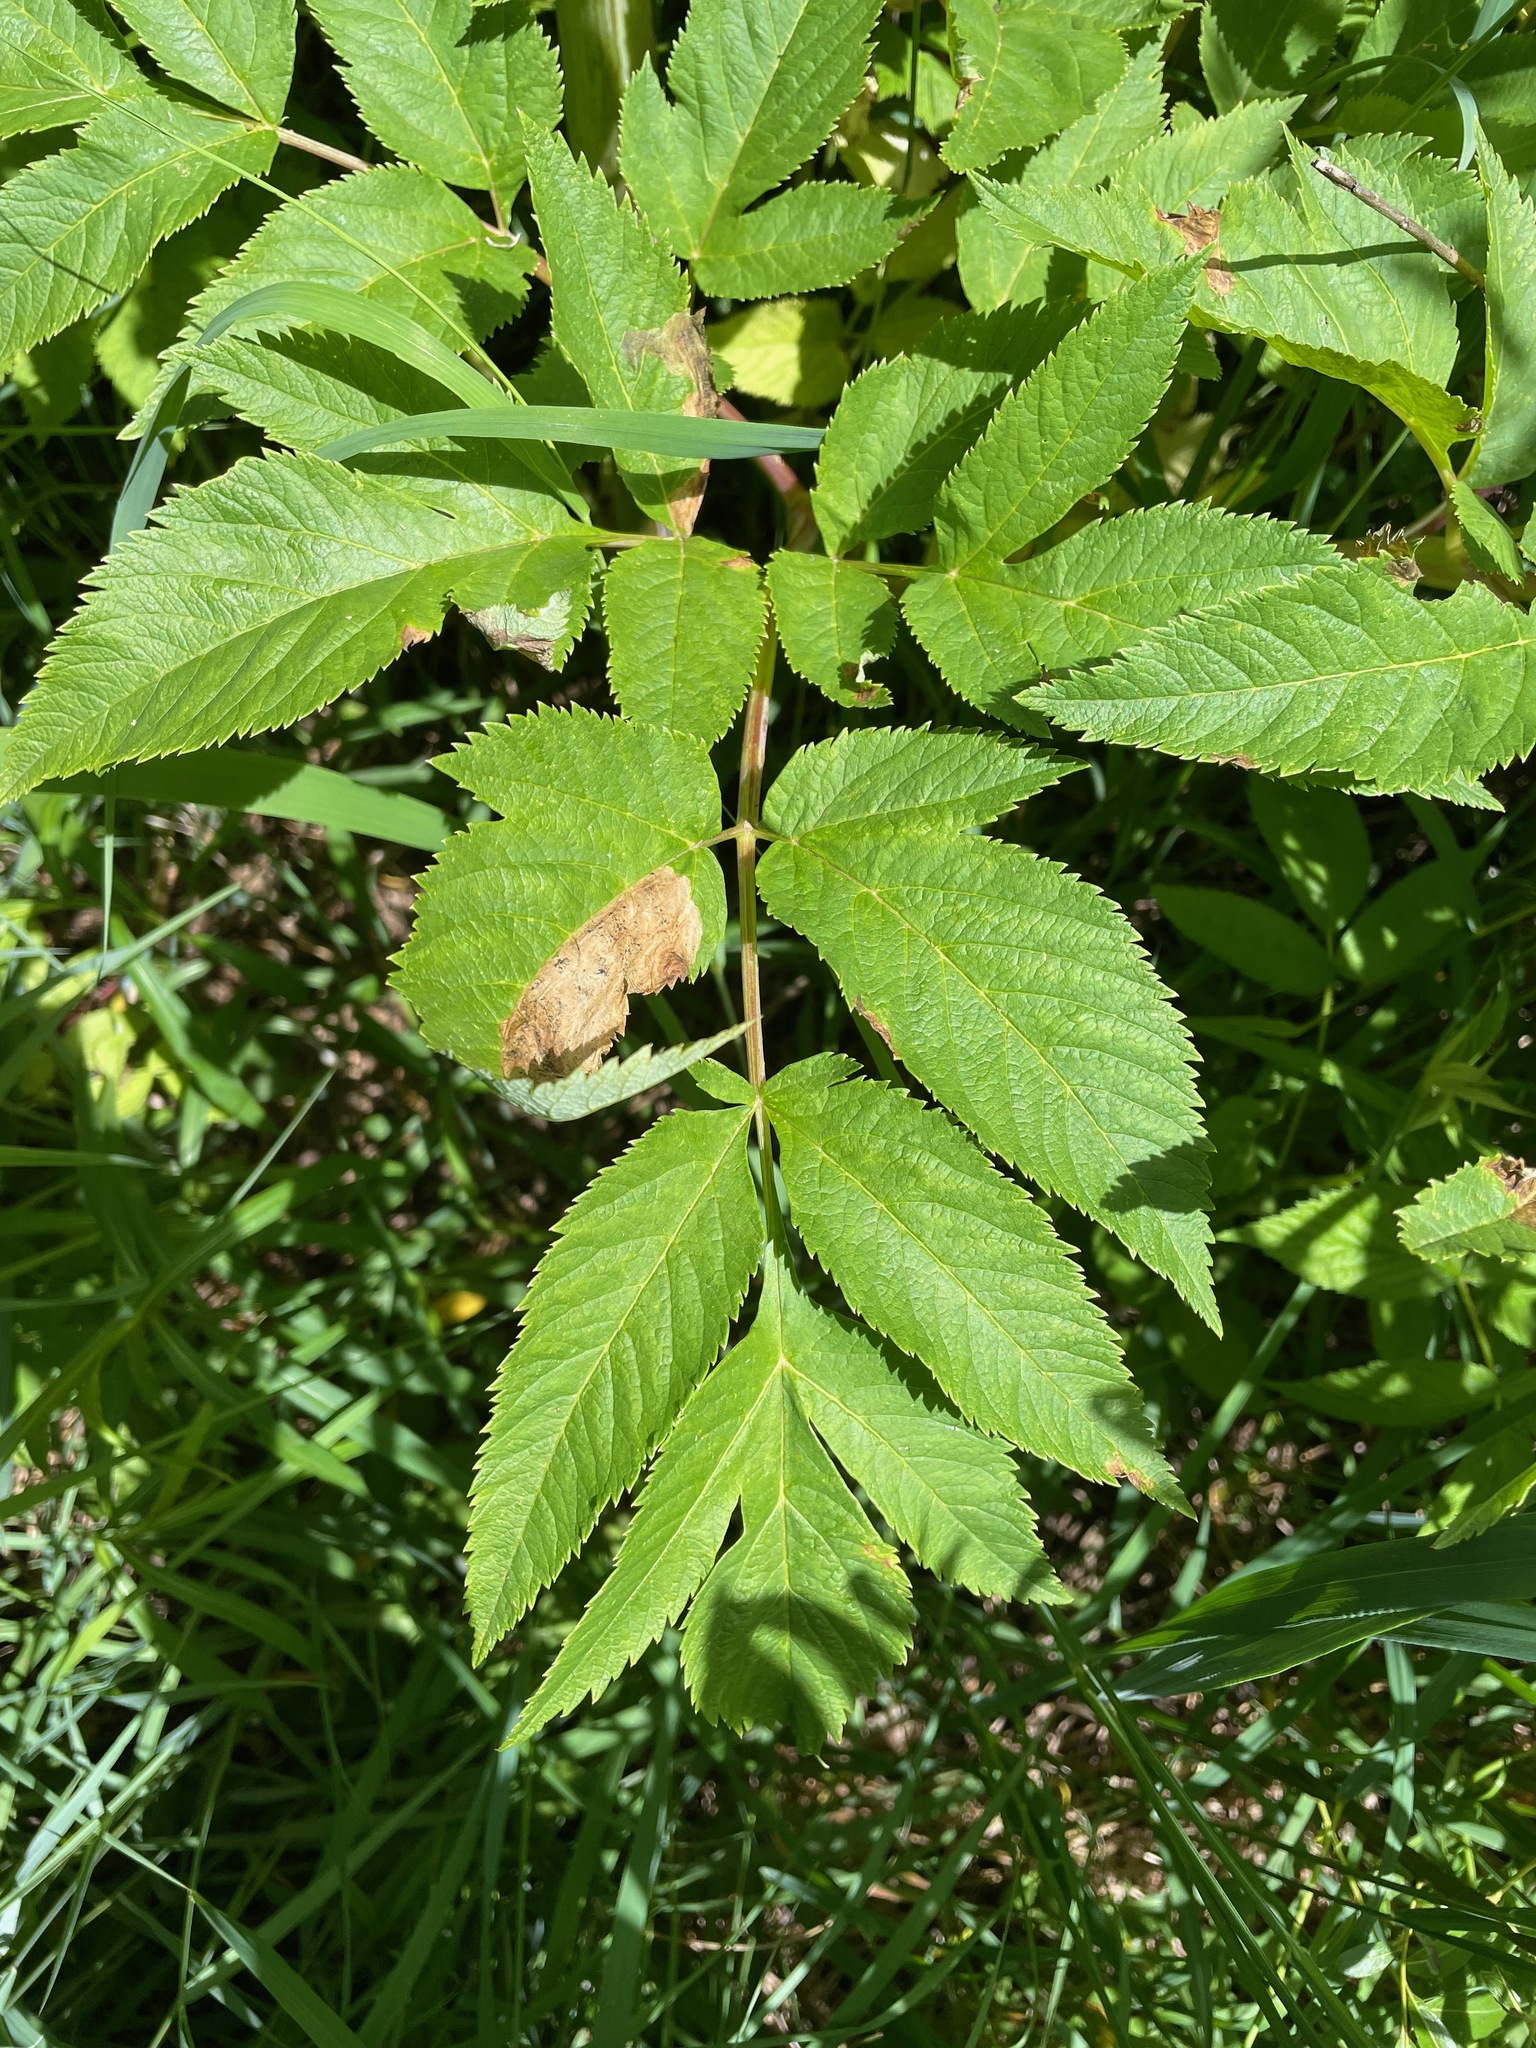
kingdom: Plantae
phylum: Tracheophyta
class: Magnoliopsida
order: Apiales
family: Apiaceae
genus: Angelica
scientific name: Angelica atropurpurea
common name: Great angelica
